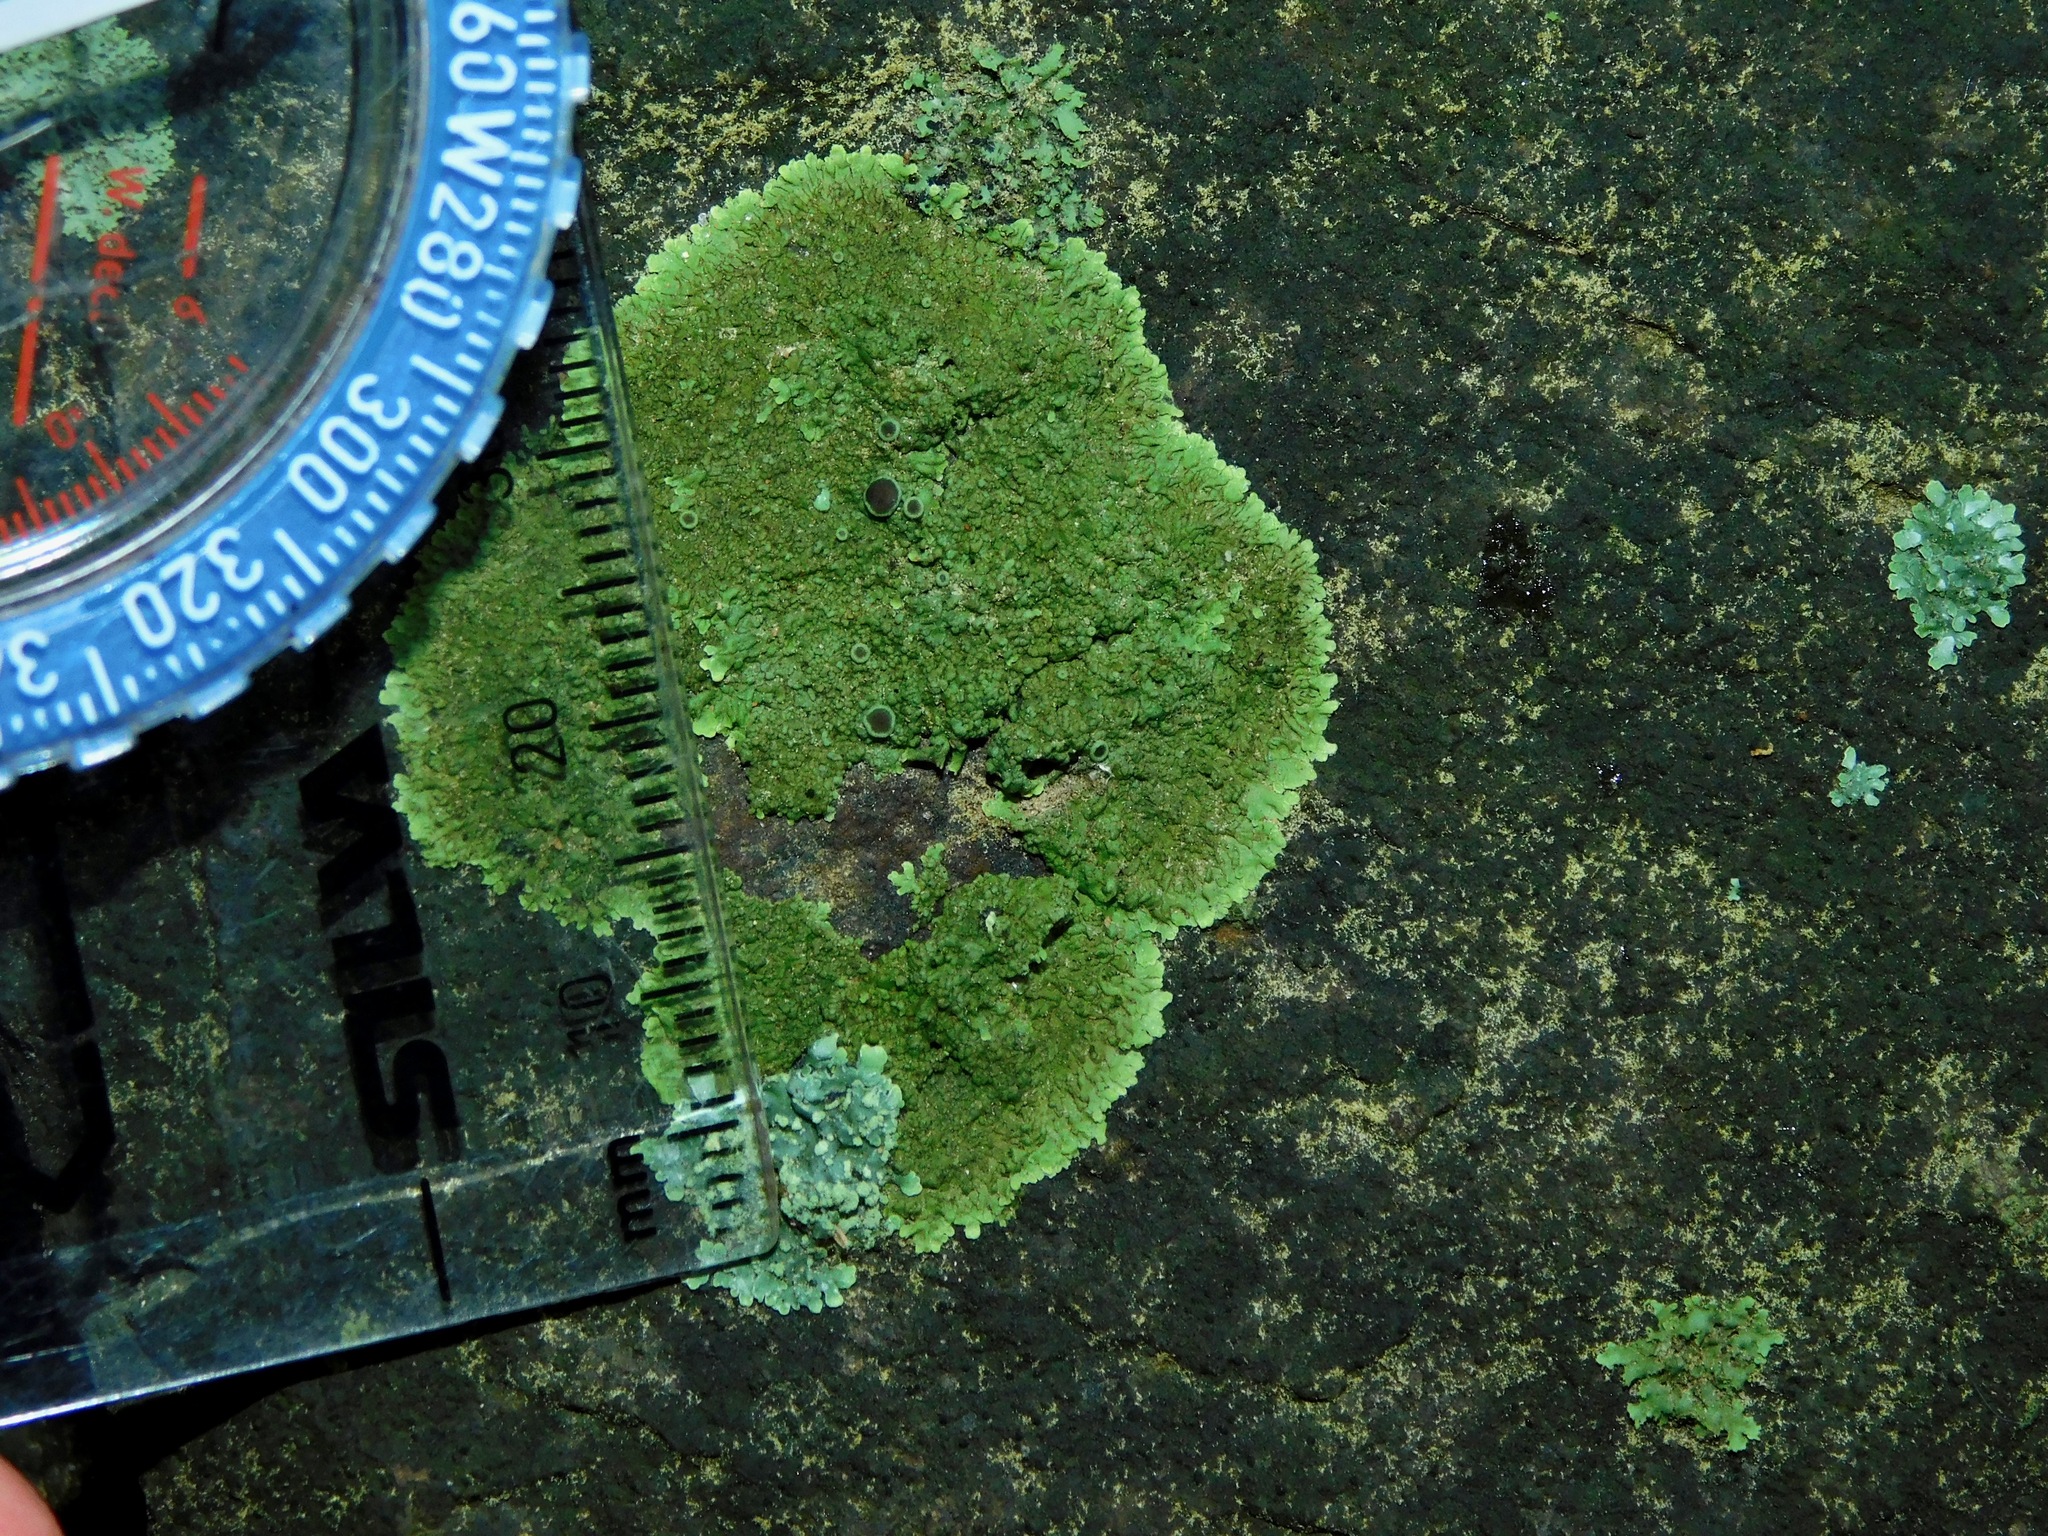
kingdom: Fungi
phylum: Ascomycota
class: Lecanoromycetes
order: Caliciales
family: Physciaceae
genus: Hyperphyscia
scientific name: Hyperphyscia syncolla
